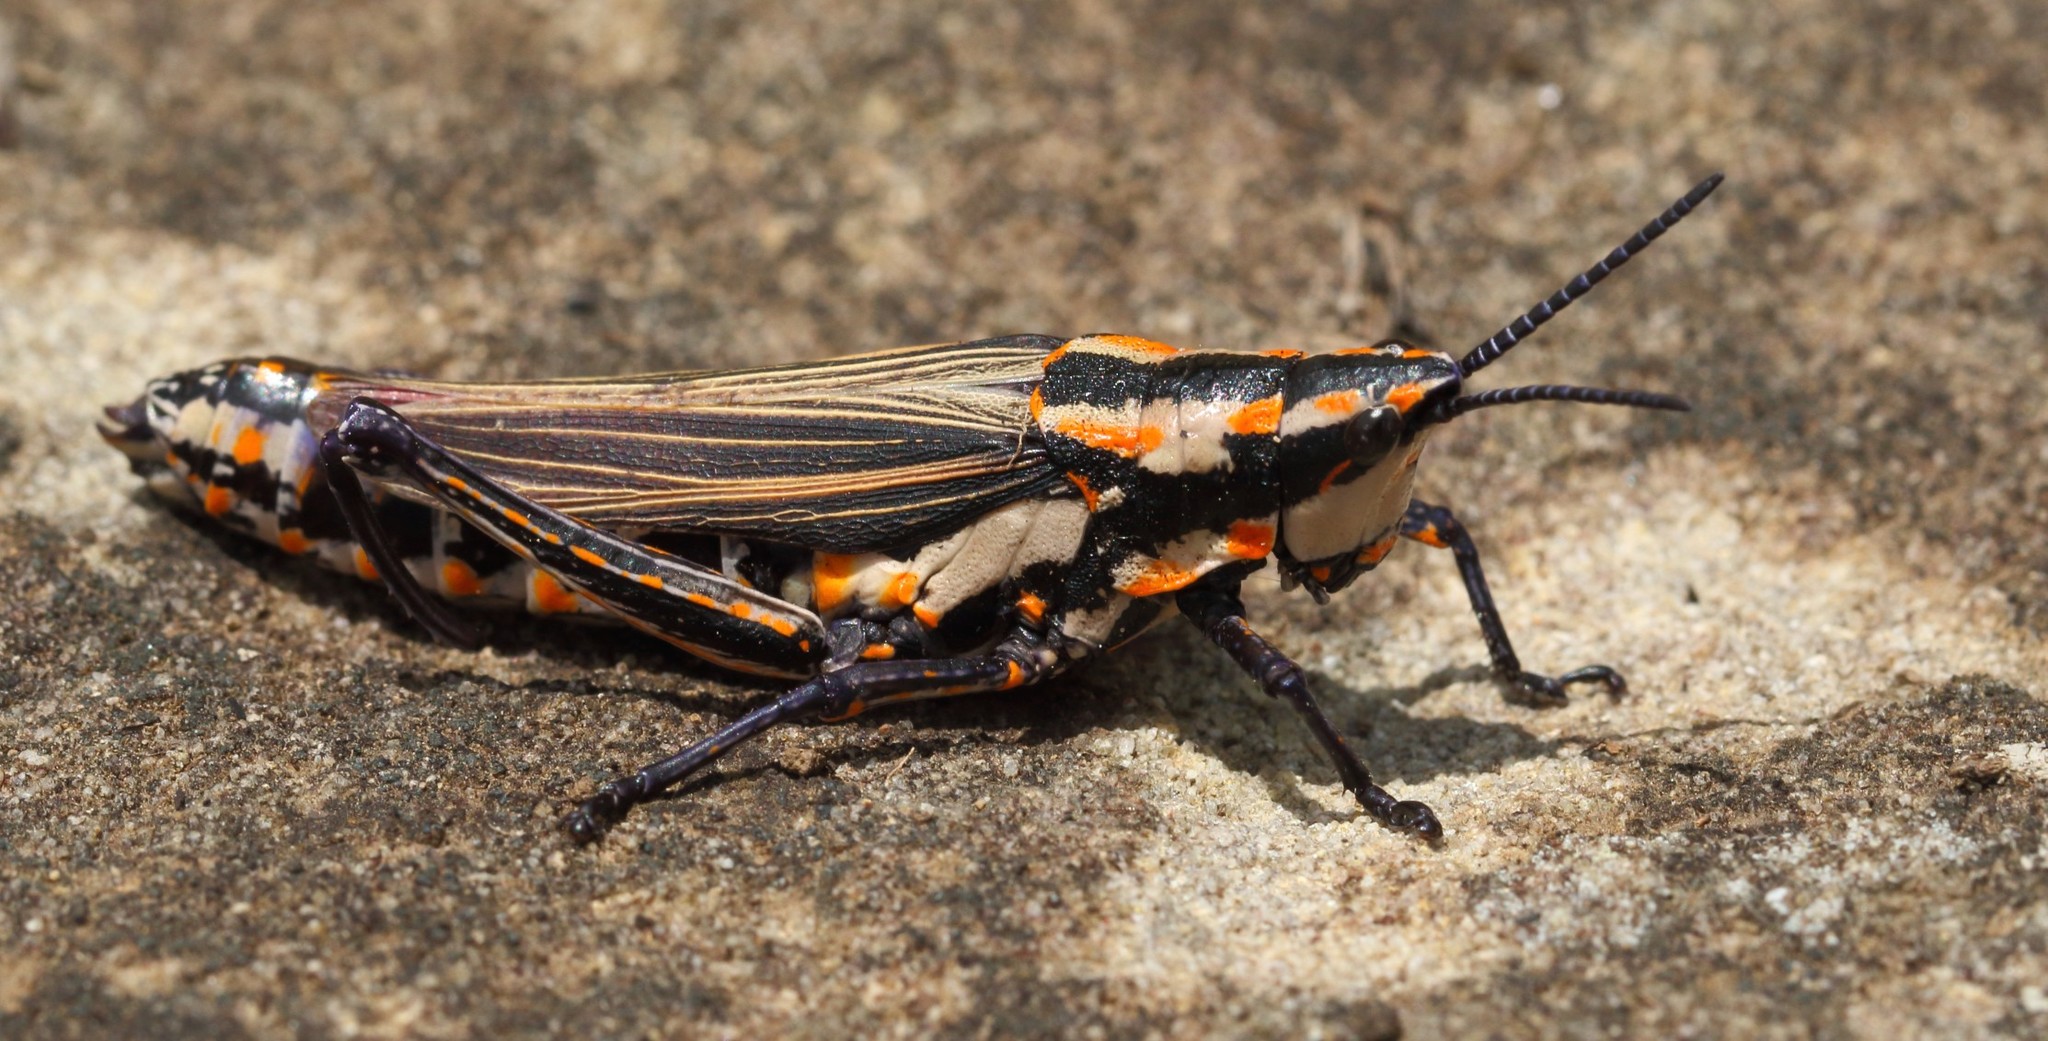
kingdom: Animalia
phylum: Arthropoda
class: Insecta
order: Orthoptera
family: Pyrgomorphidae
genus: Ochrophlebia
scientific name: Ochrophlebia cafra
